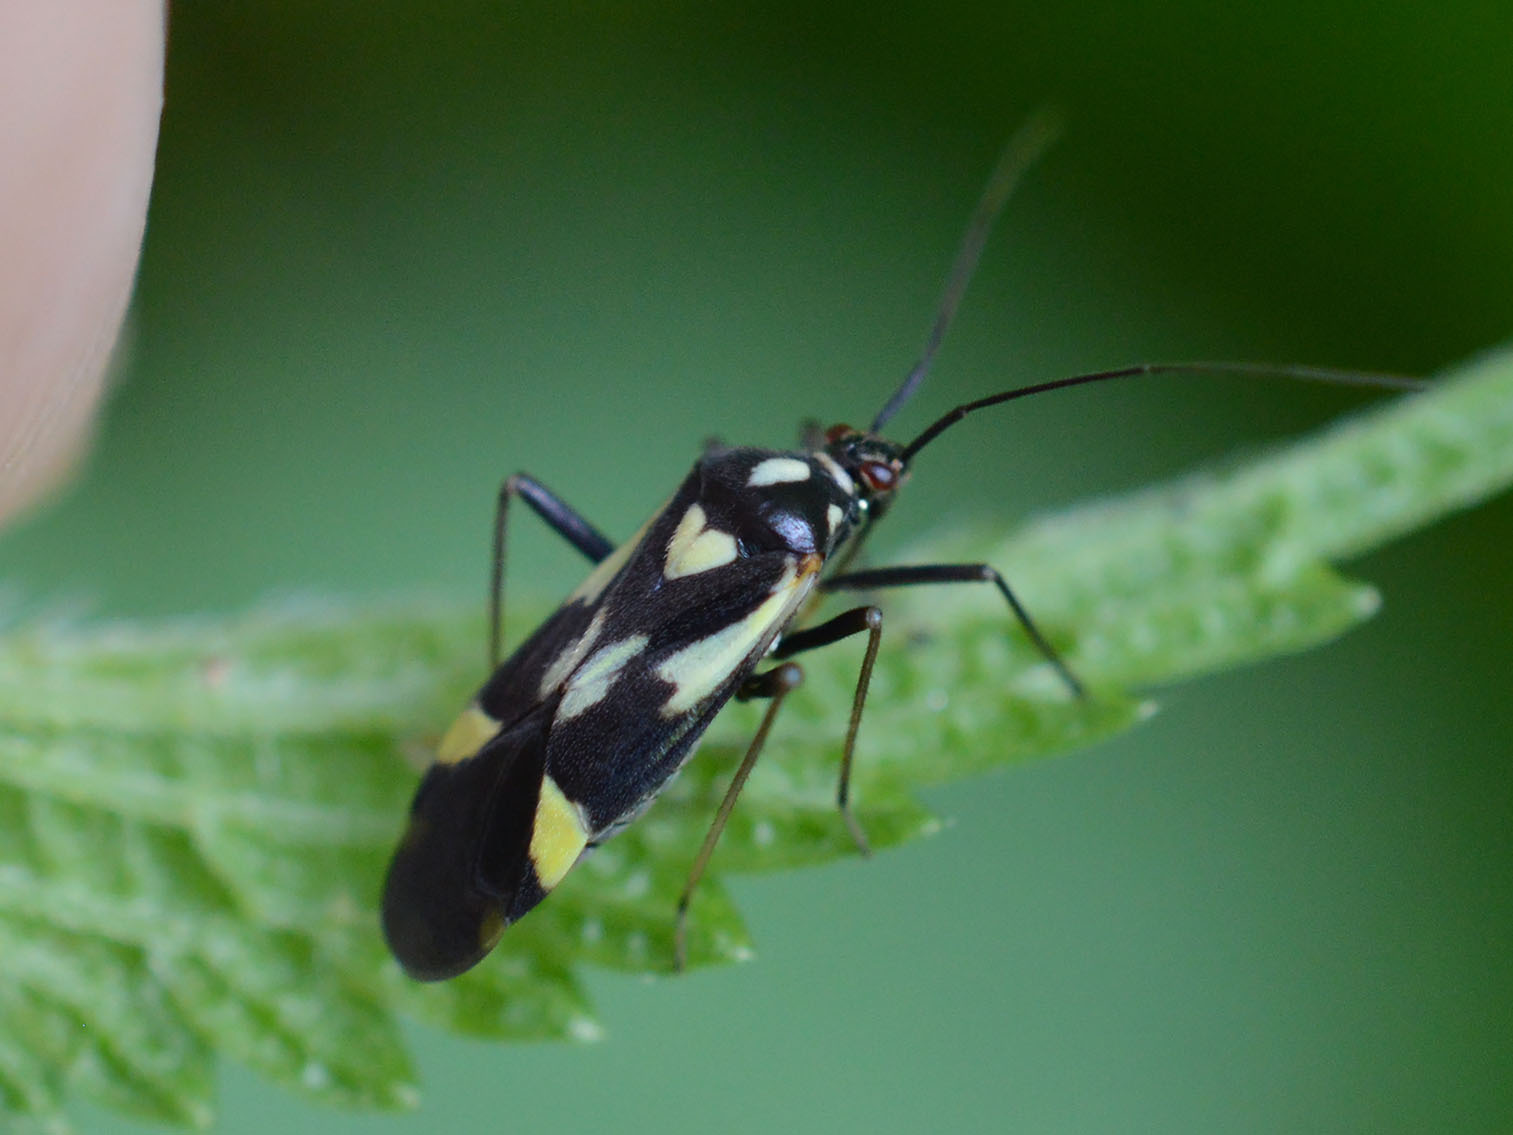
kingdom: Animalia
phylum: Arthropoda
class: Insecta
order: Hemiptera
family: Miridae
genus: Grypocoris
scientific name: Grypocoris sexguttatus
